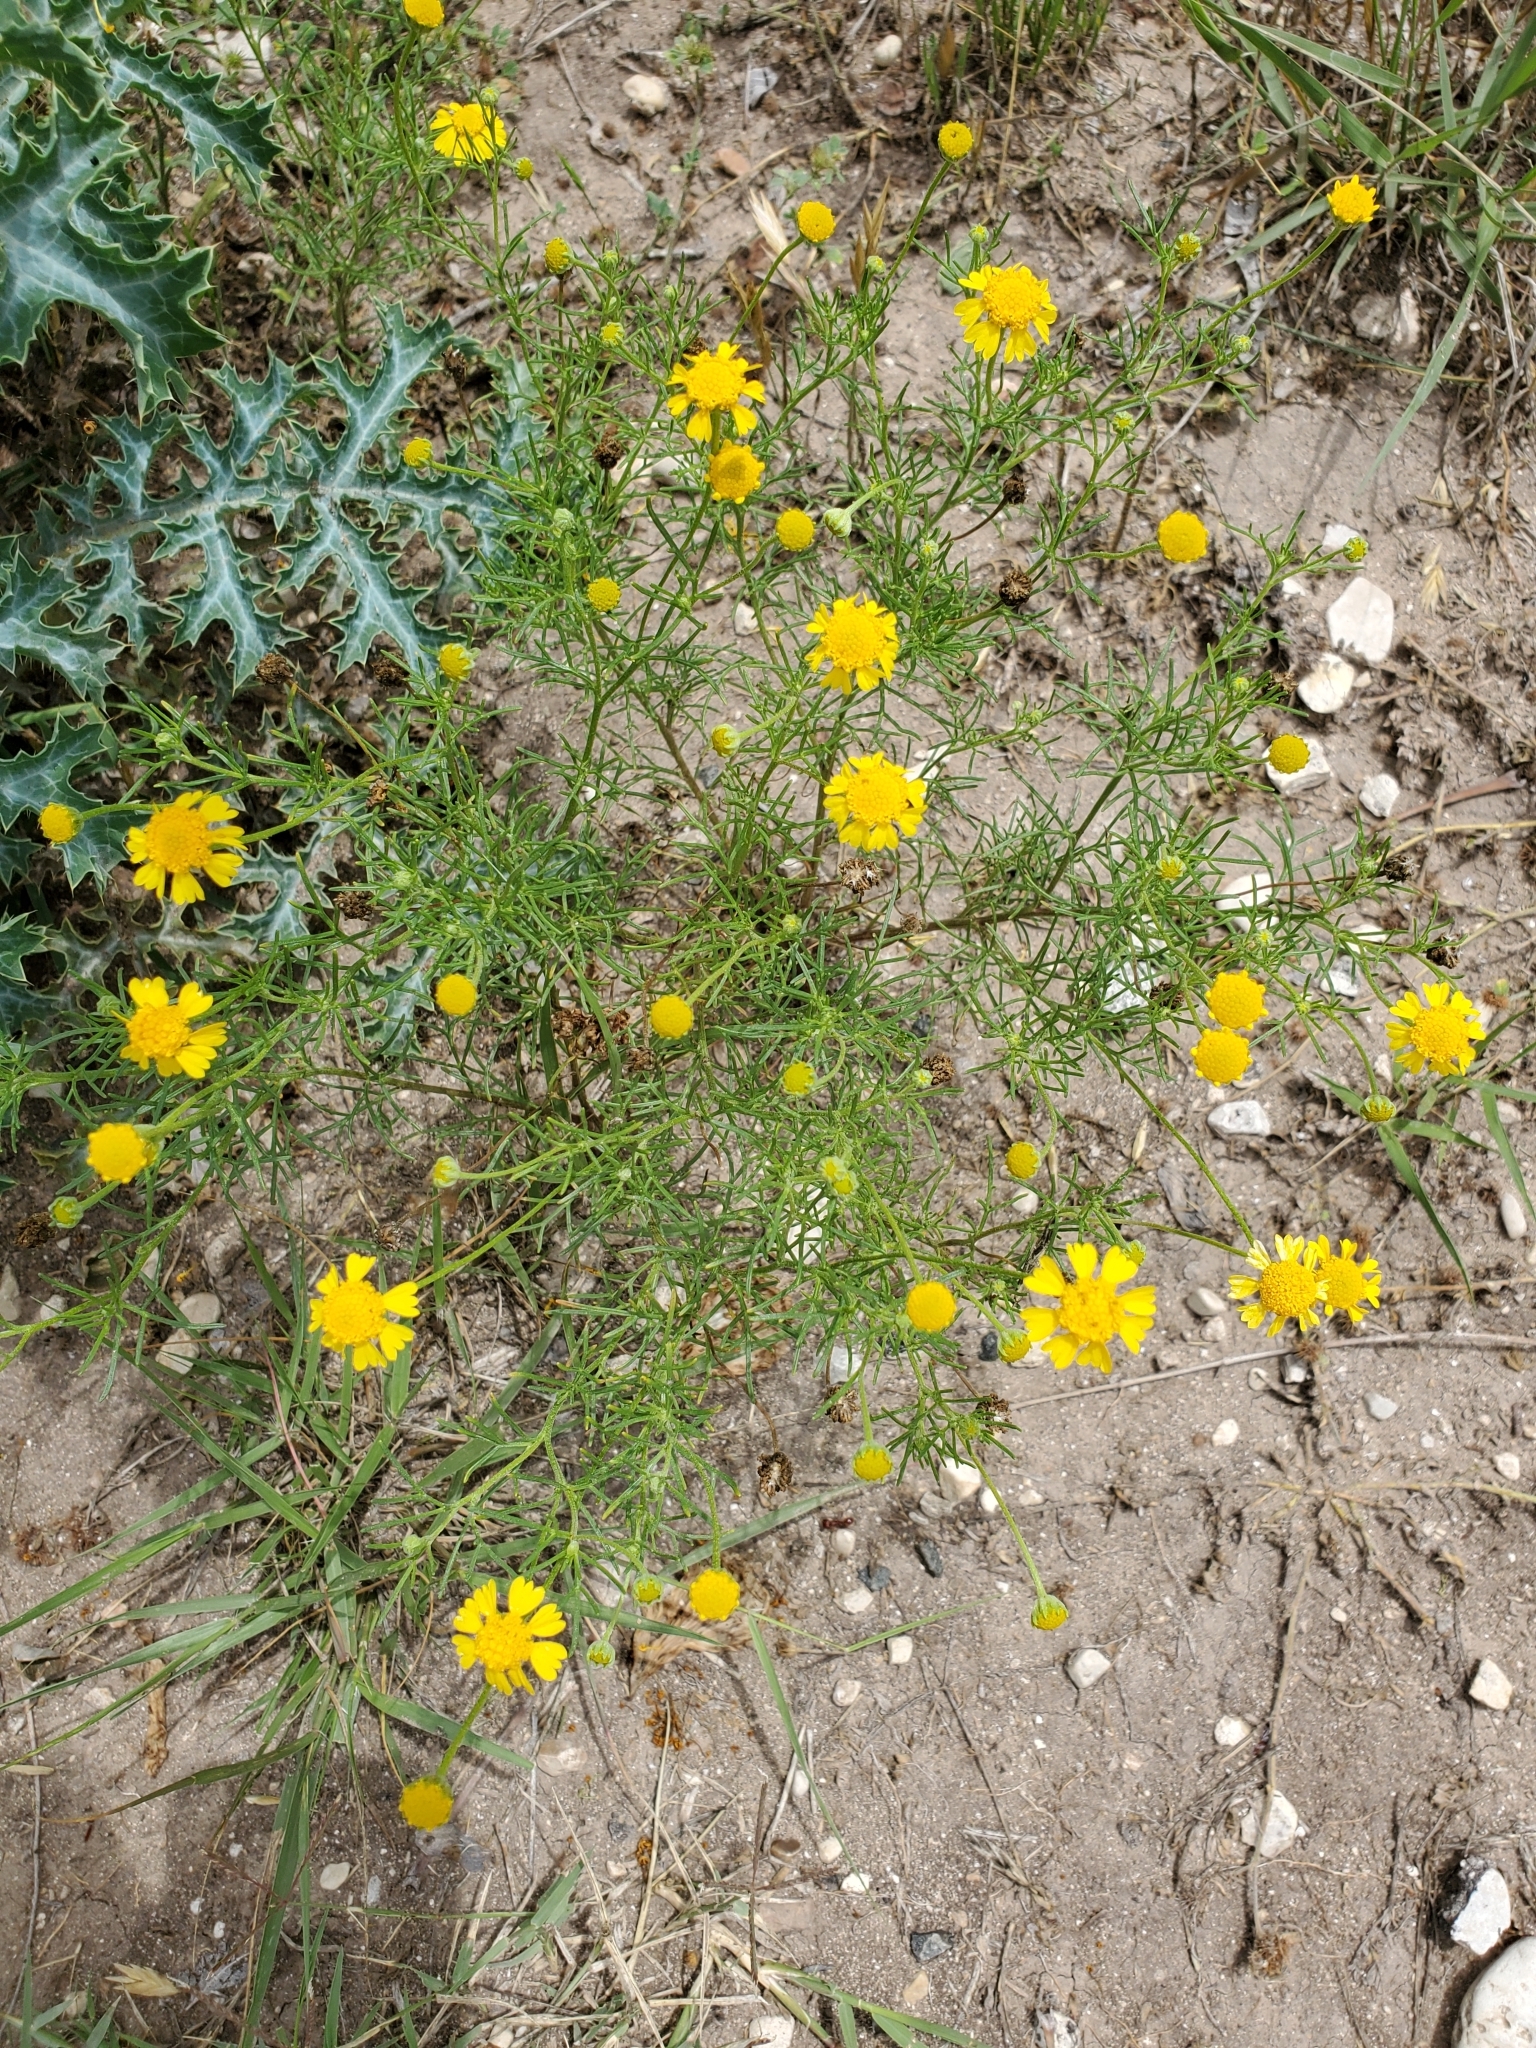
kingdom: Plantae
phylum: Tracheophyta
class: Magnoliopsida
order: Asterales
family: Asteraceae
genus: Hymenoxys
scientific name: Hymenoxys odorata
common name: Bitter rubberweed
